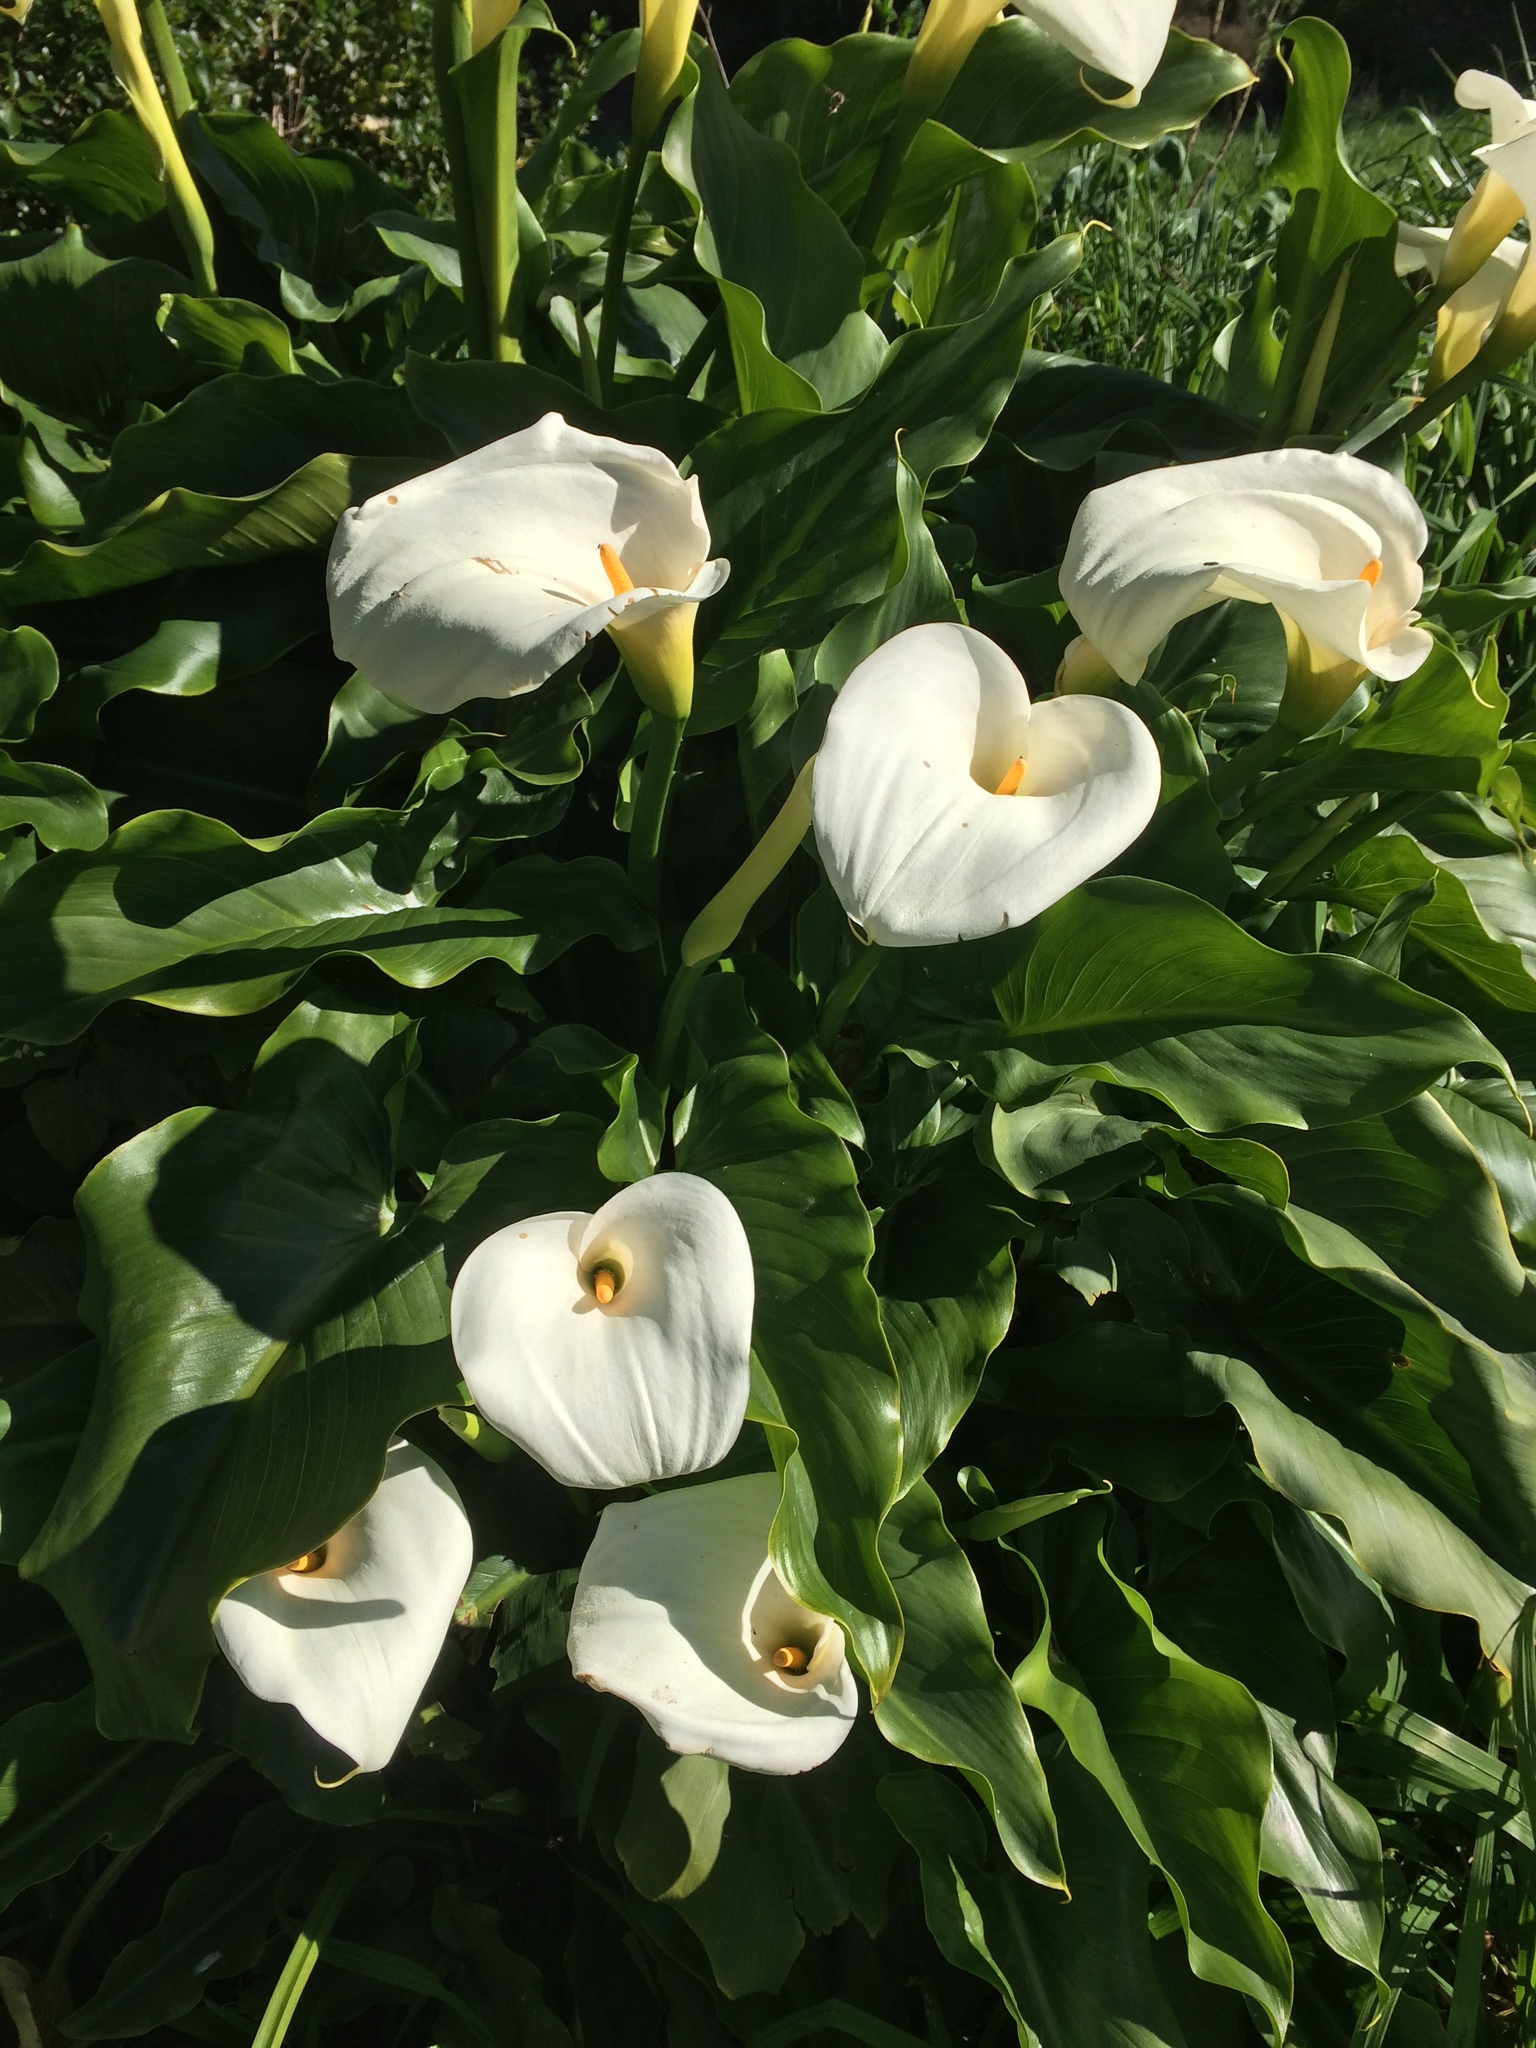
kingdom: Plantae
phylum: Tracheophyta
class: Liliopsida
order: Alismatales
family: Araceae
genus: Zantedeschia
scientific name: Zantedeschia aethiopica
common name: Altar-lily
